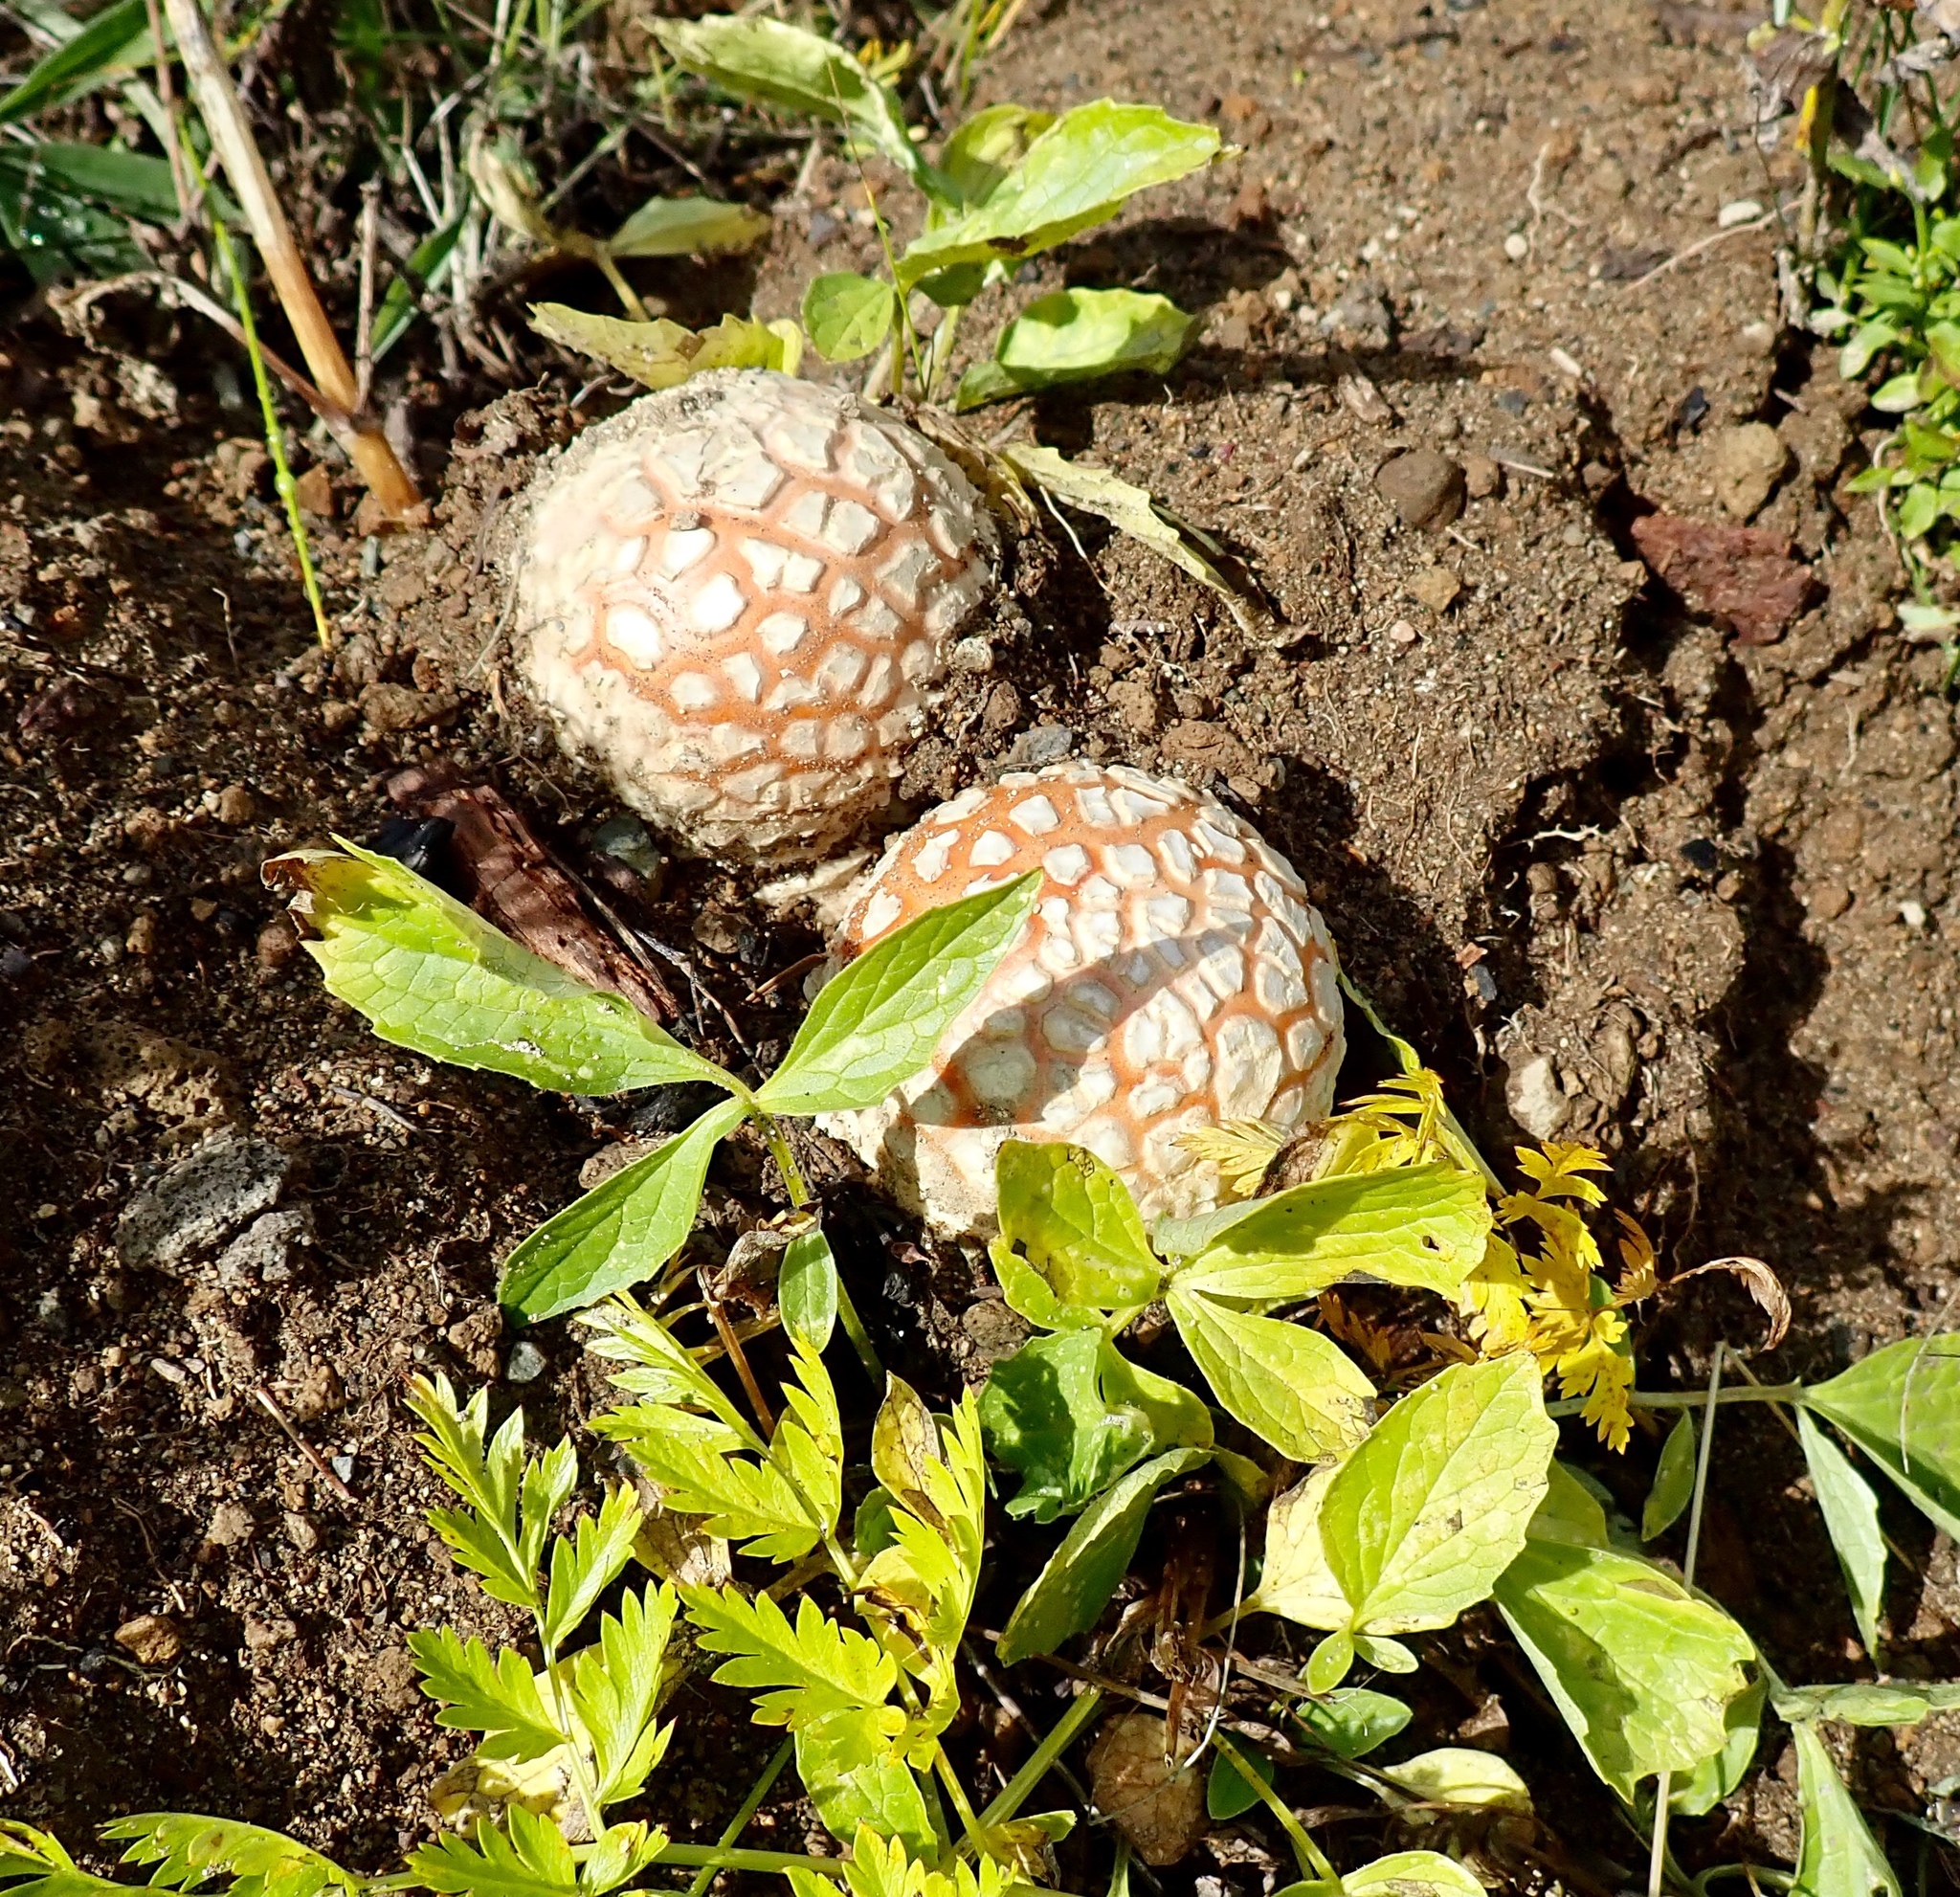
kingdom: Fungi
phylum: Basidiomycota
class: Agaricomycetes
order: Agaricales
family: Amanitaceae
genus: Amanita
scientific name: Amanita muscaria
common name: Fly agaric
